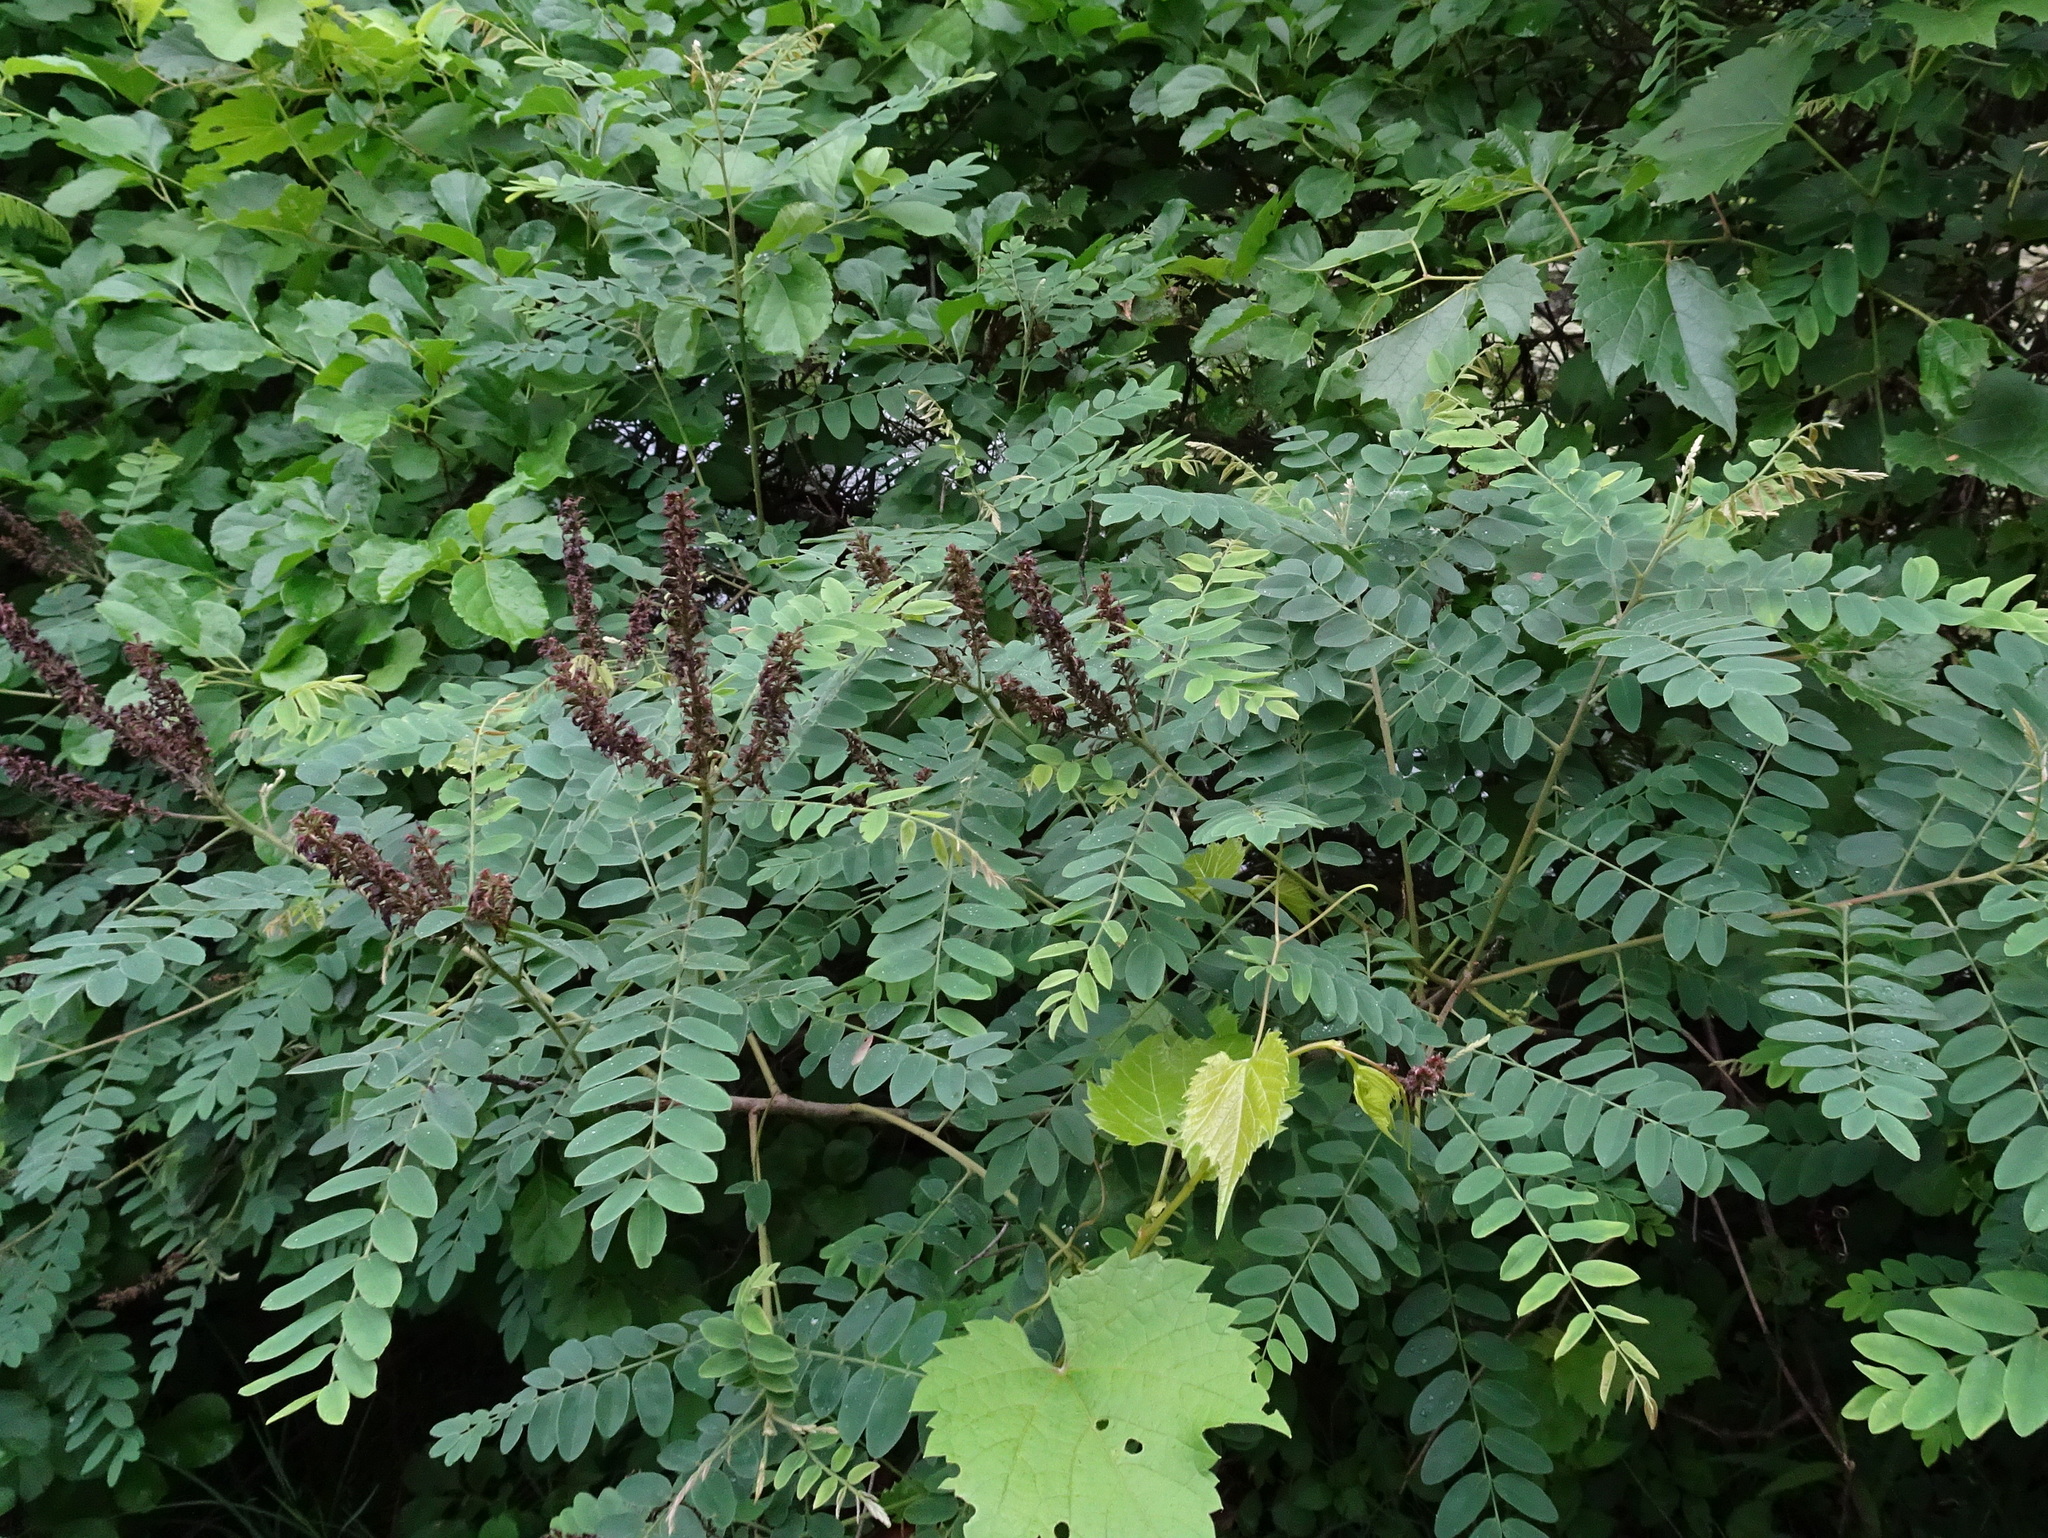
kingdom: Plantae
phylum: Tracheophyta
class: Magnoliopsida
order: Fabales
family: Fabaceae
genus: Amorpha
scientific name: Amorpha fruticosa
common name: False indigo
